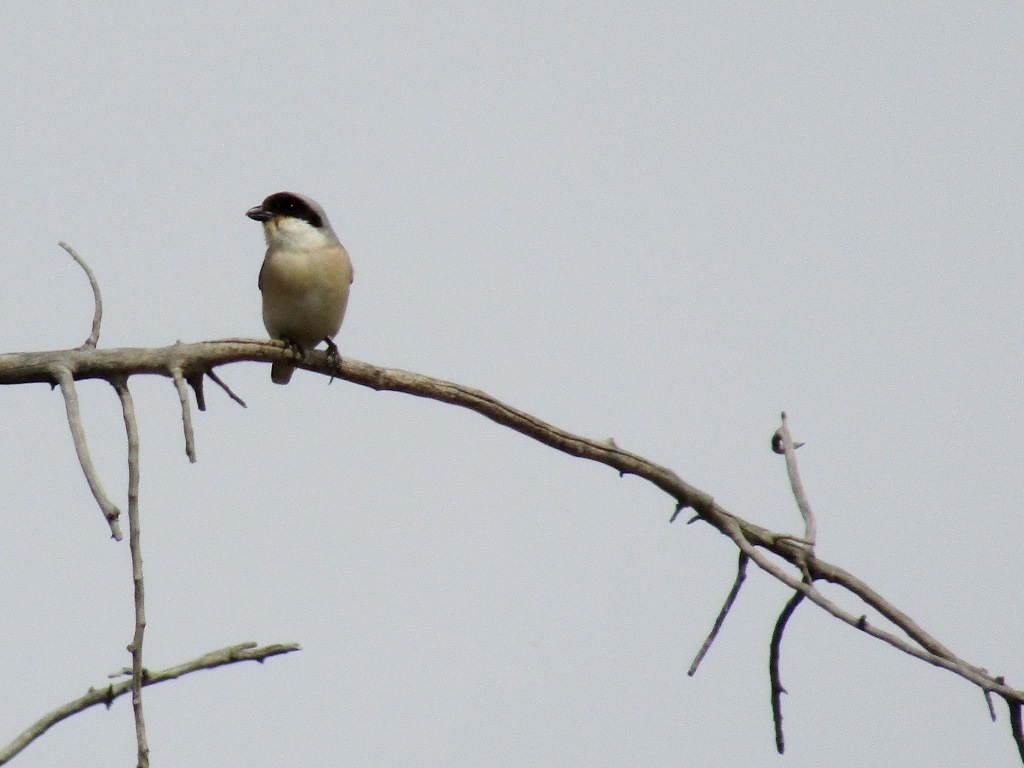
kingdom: Animalia
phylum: Chordata
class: Aves
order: Passeriformes
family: Laniidae
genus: Lanius
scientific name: Lanius minor
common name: Lesser grey shrike
